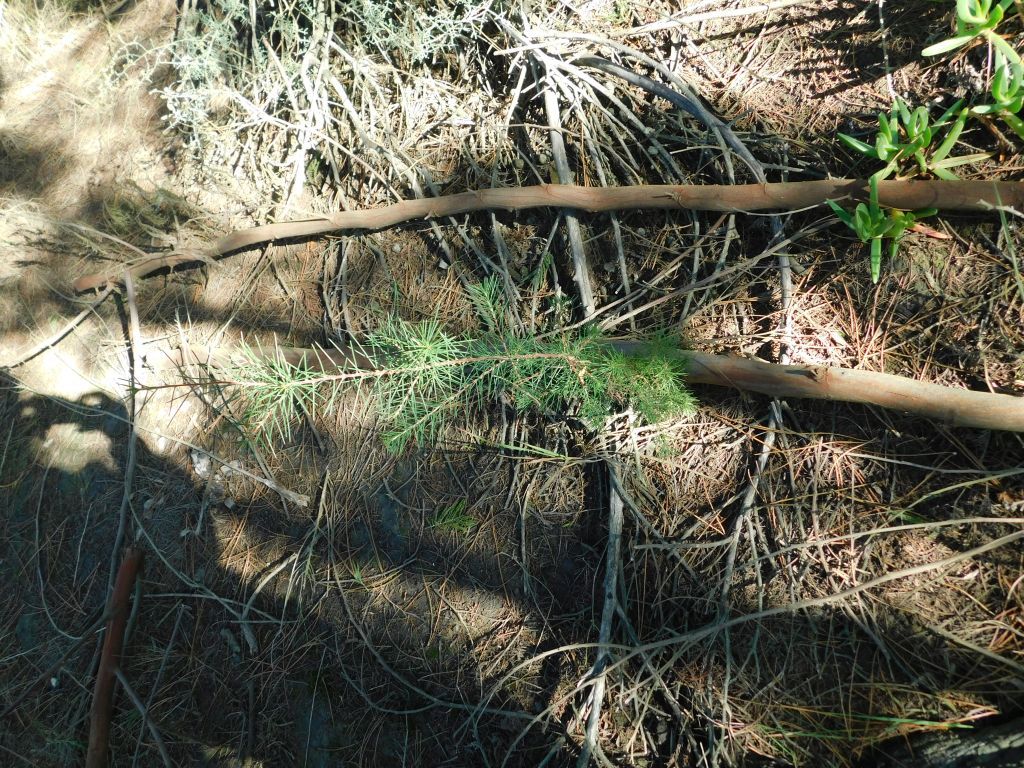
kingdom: Plantae
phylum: Tracheophyta
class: Magnoliopsida
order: Proteales
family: Proteaceae
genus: Hakea
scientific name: Hakea sericea
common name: Needle bush
